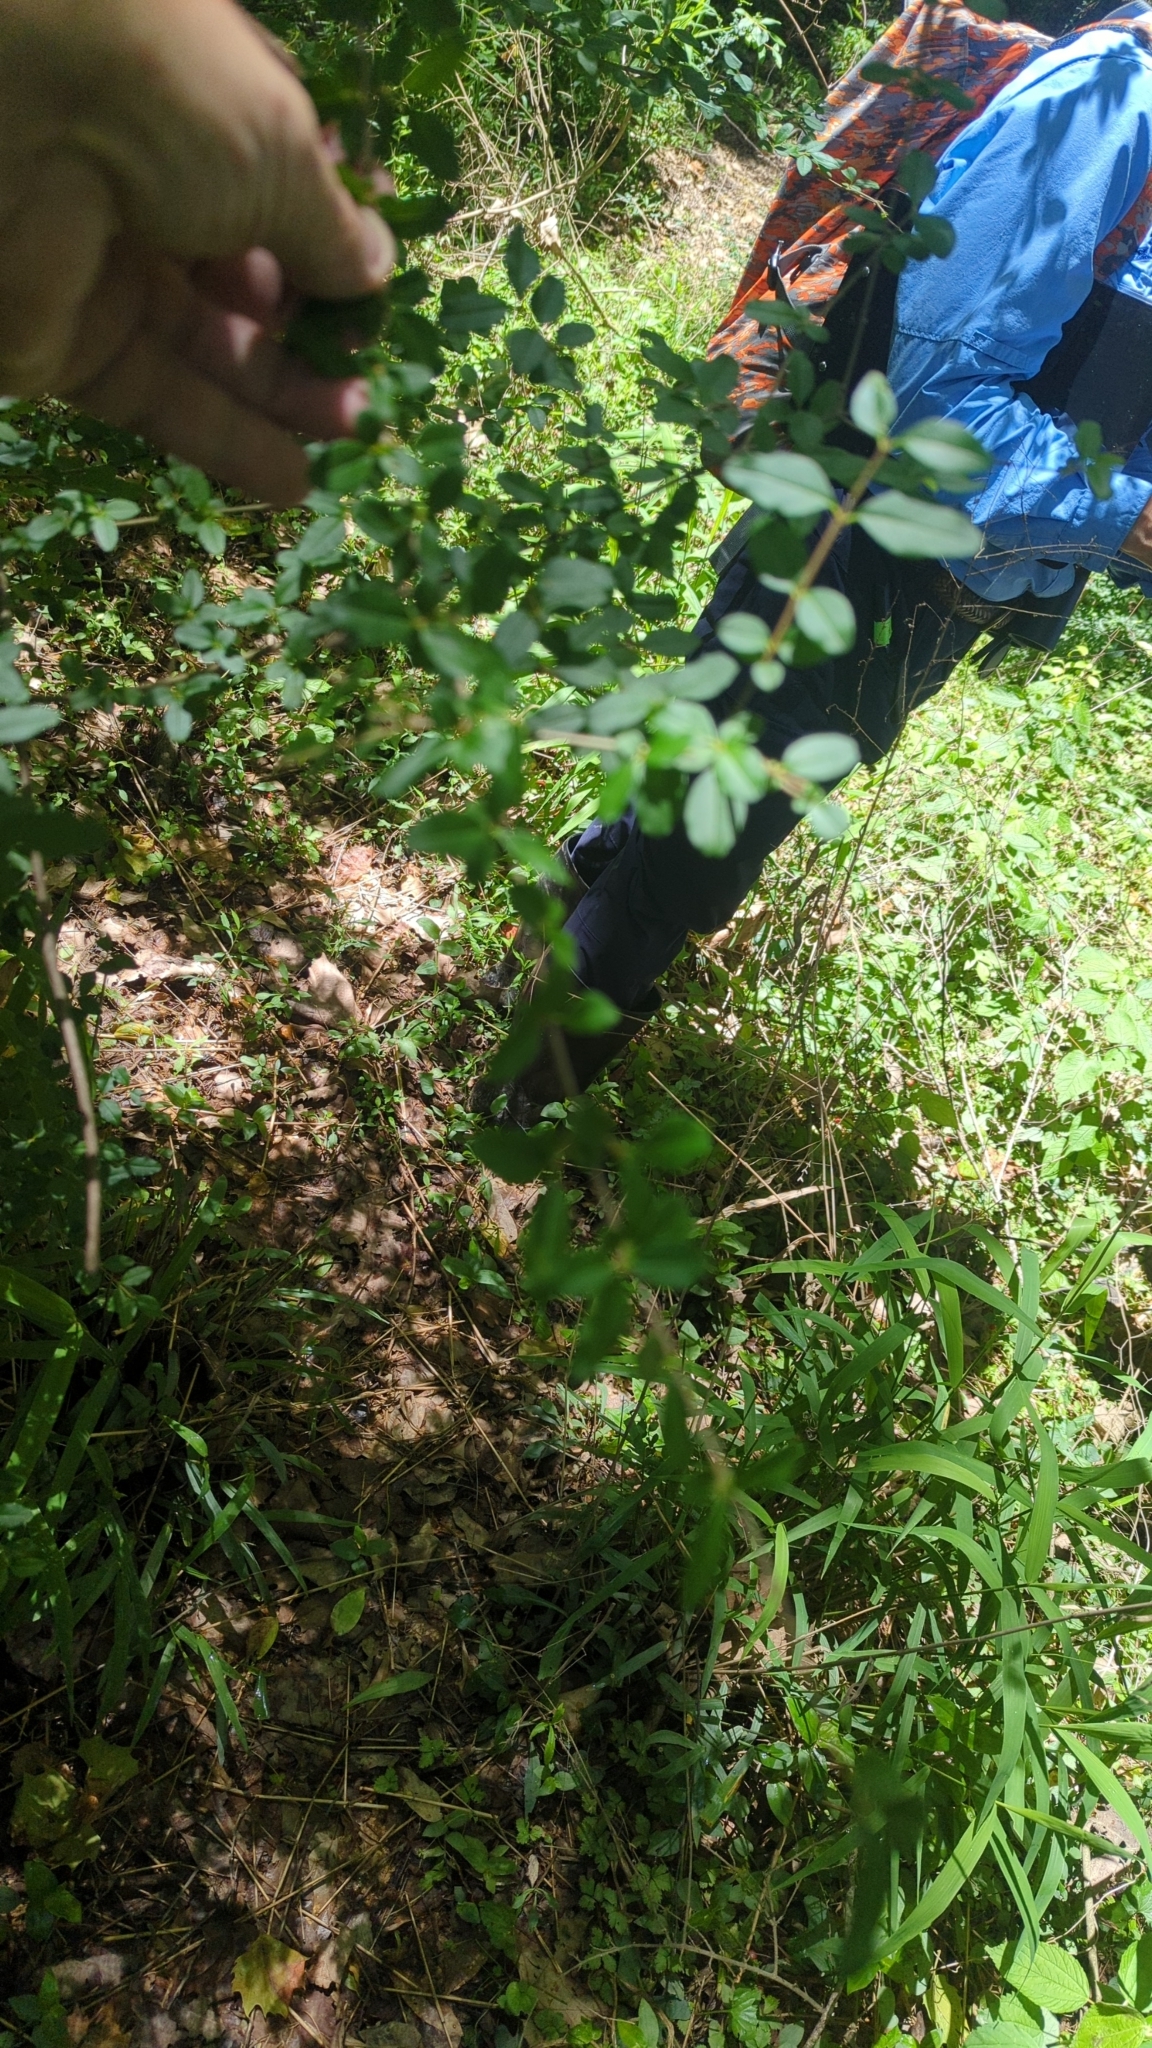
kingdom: Plantae
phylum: Tracheophyta
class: Magnoliopsida
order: Lamiales
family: Oleaceae
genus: Ligustrum
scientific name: Ligustrum sinense
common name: Chinese privet
